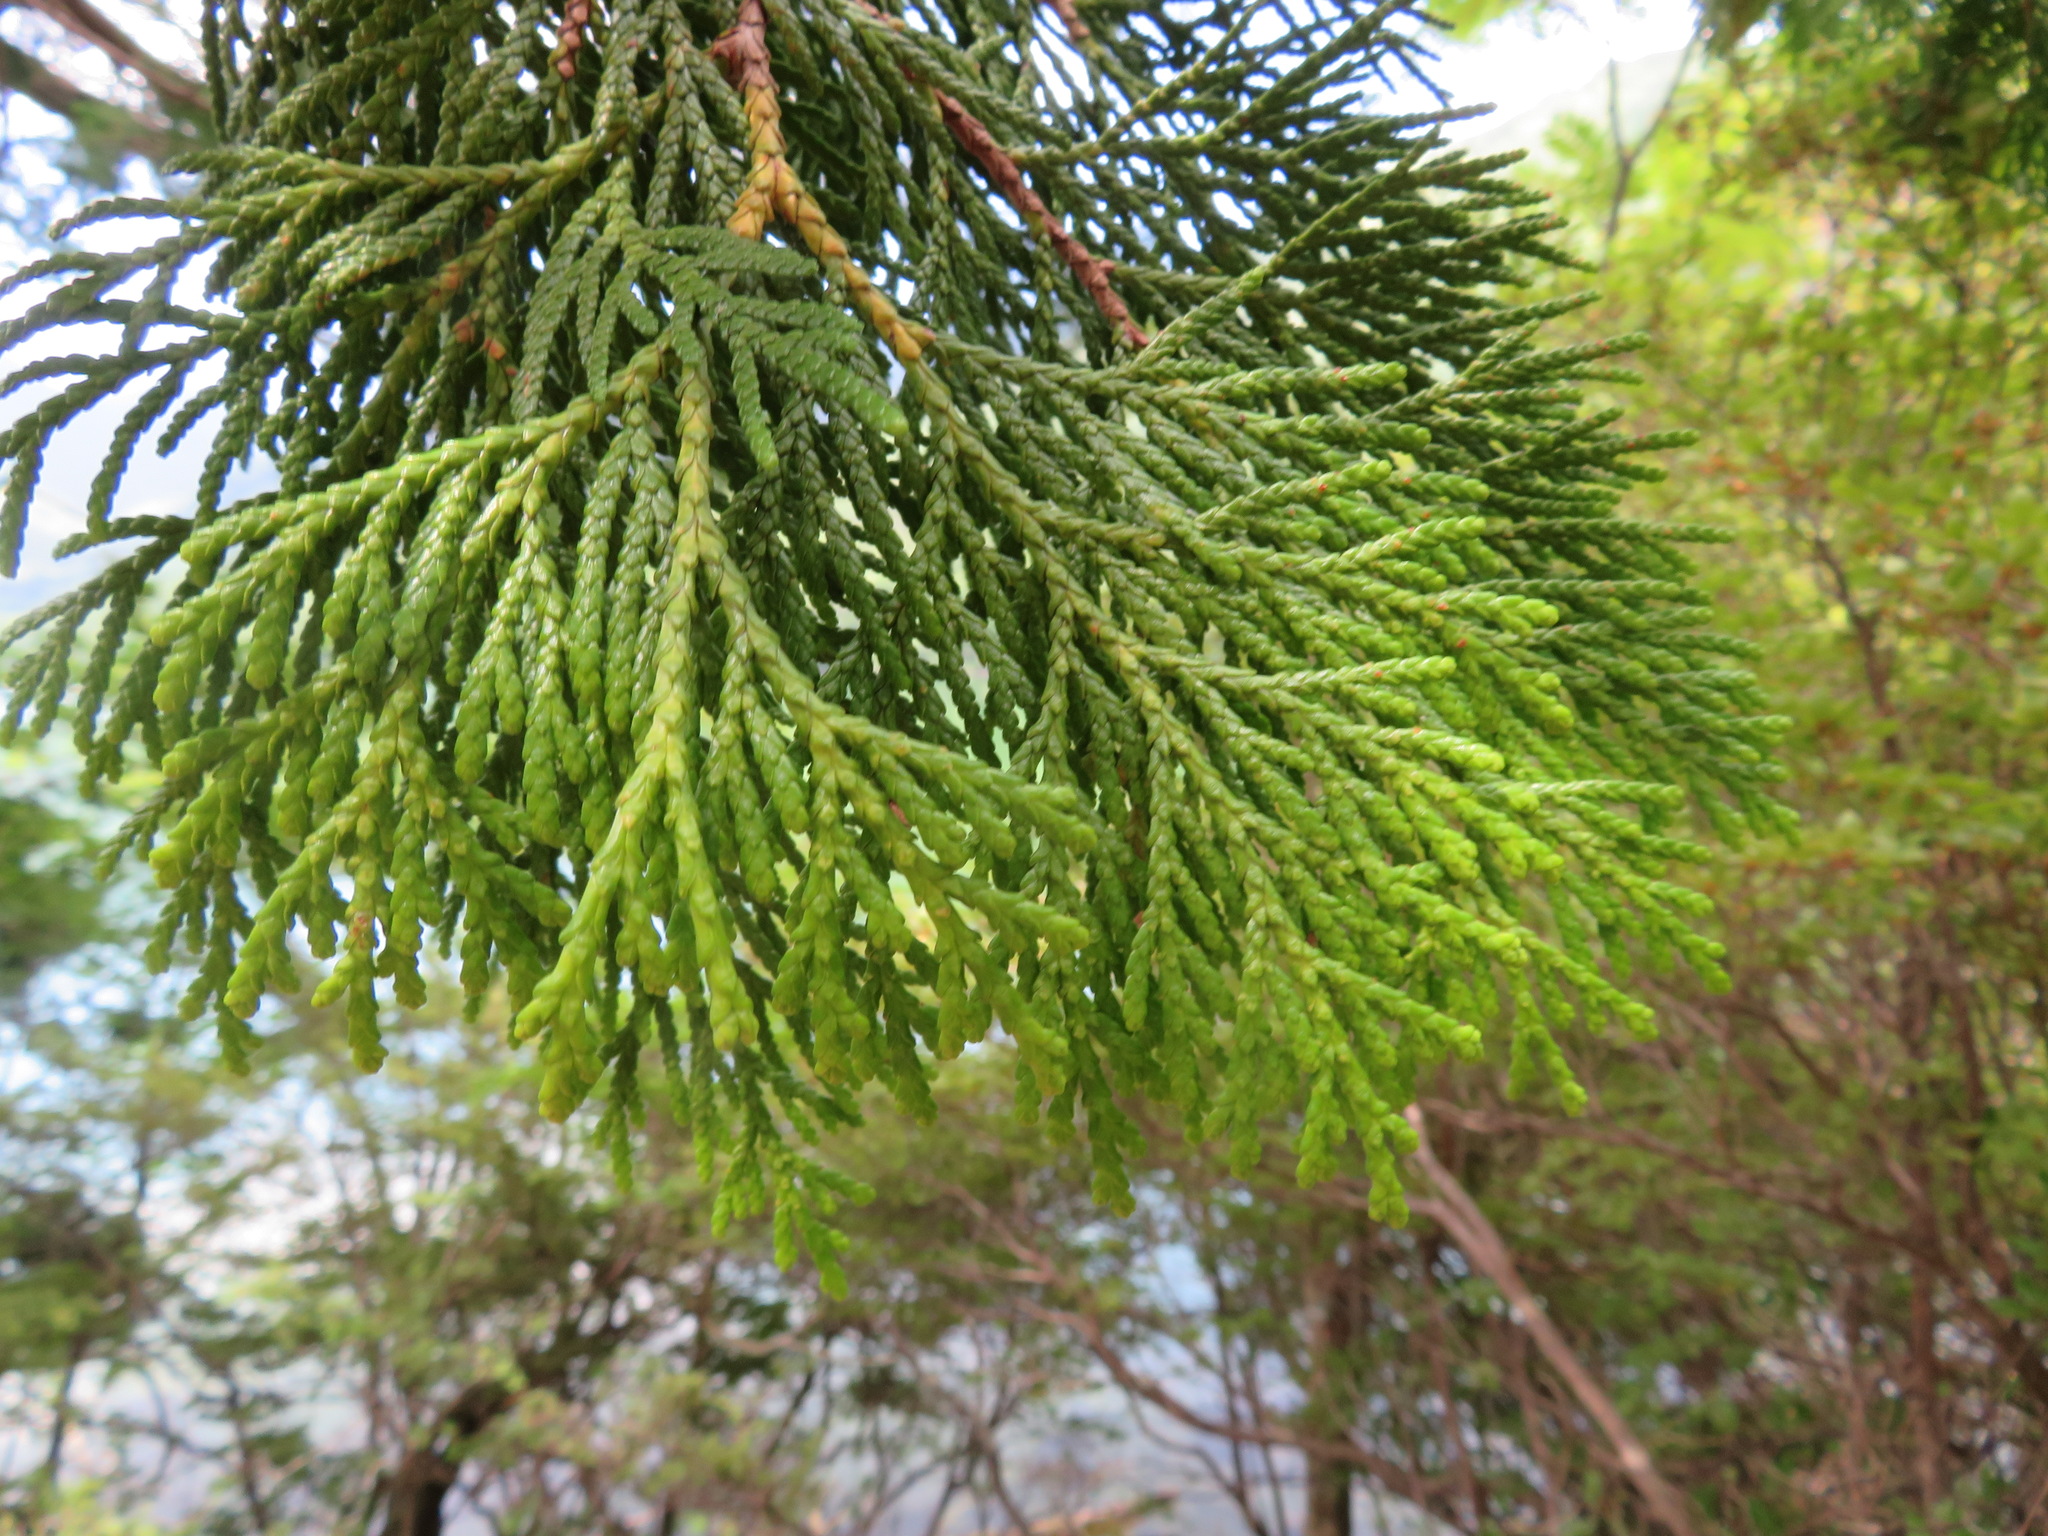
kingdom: Plantae
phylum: Tracheophyta
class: Pinopsida
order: Pinales
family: Cupressaceae
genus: Thuja
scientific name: Thuja standishii
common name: Japanese arbor-vitae
